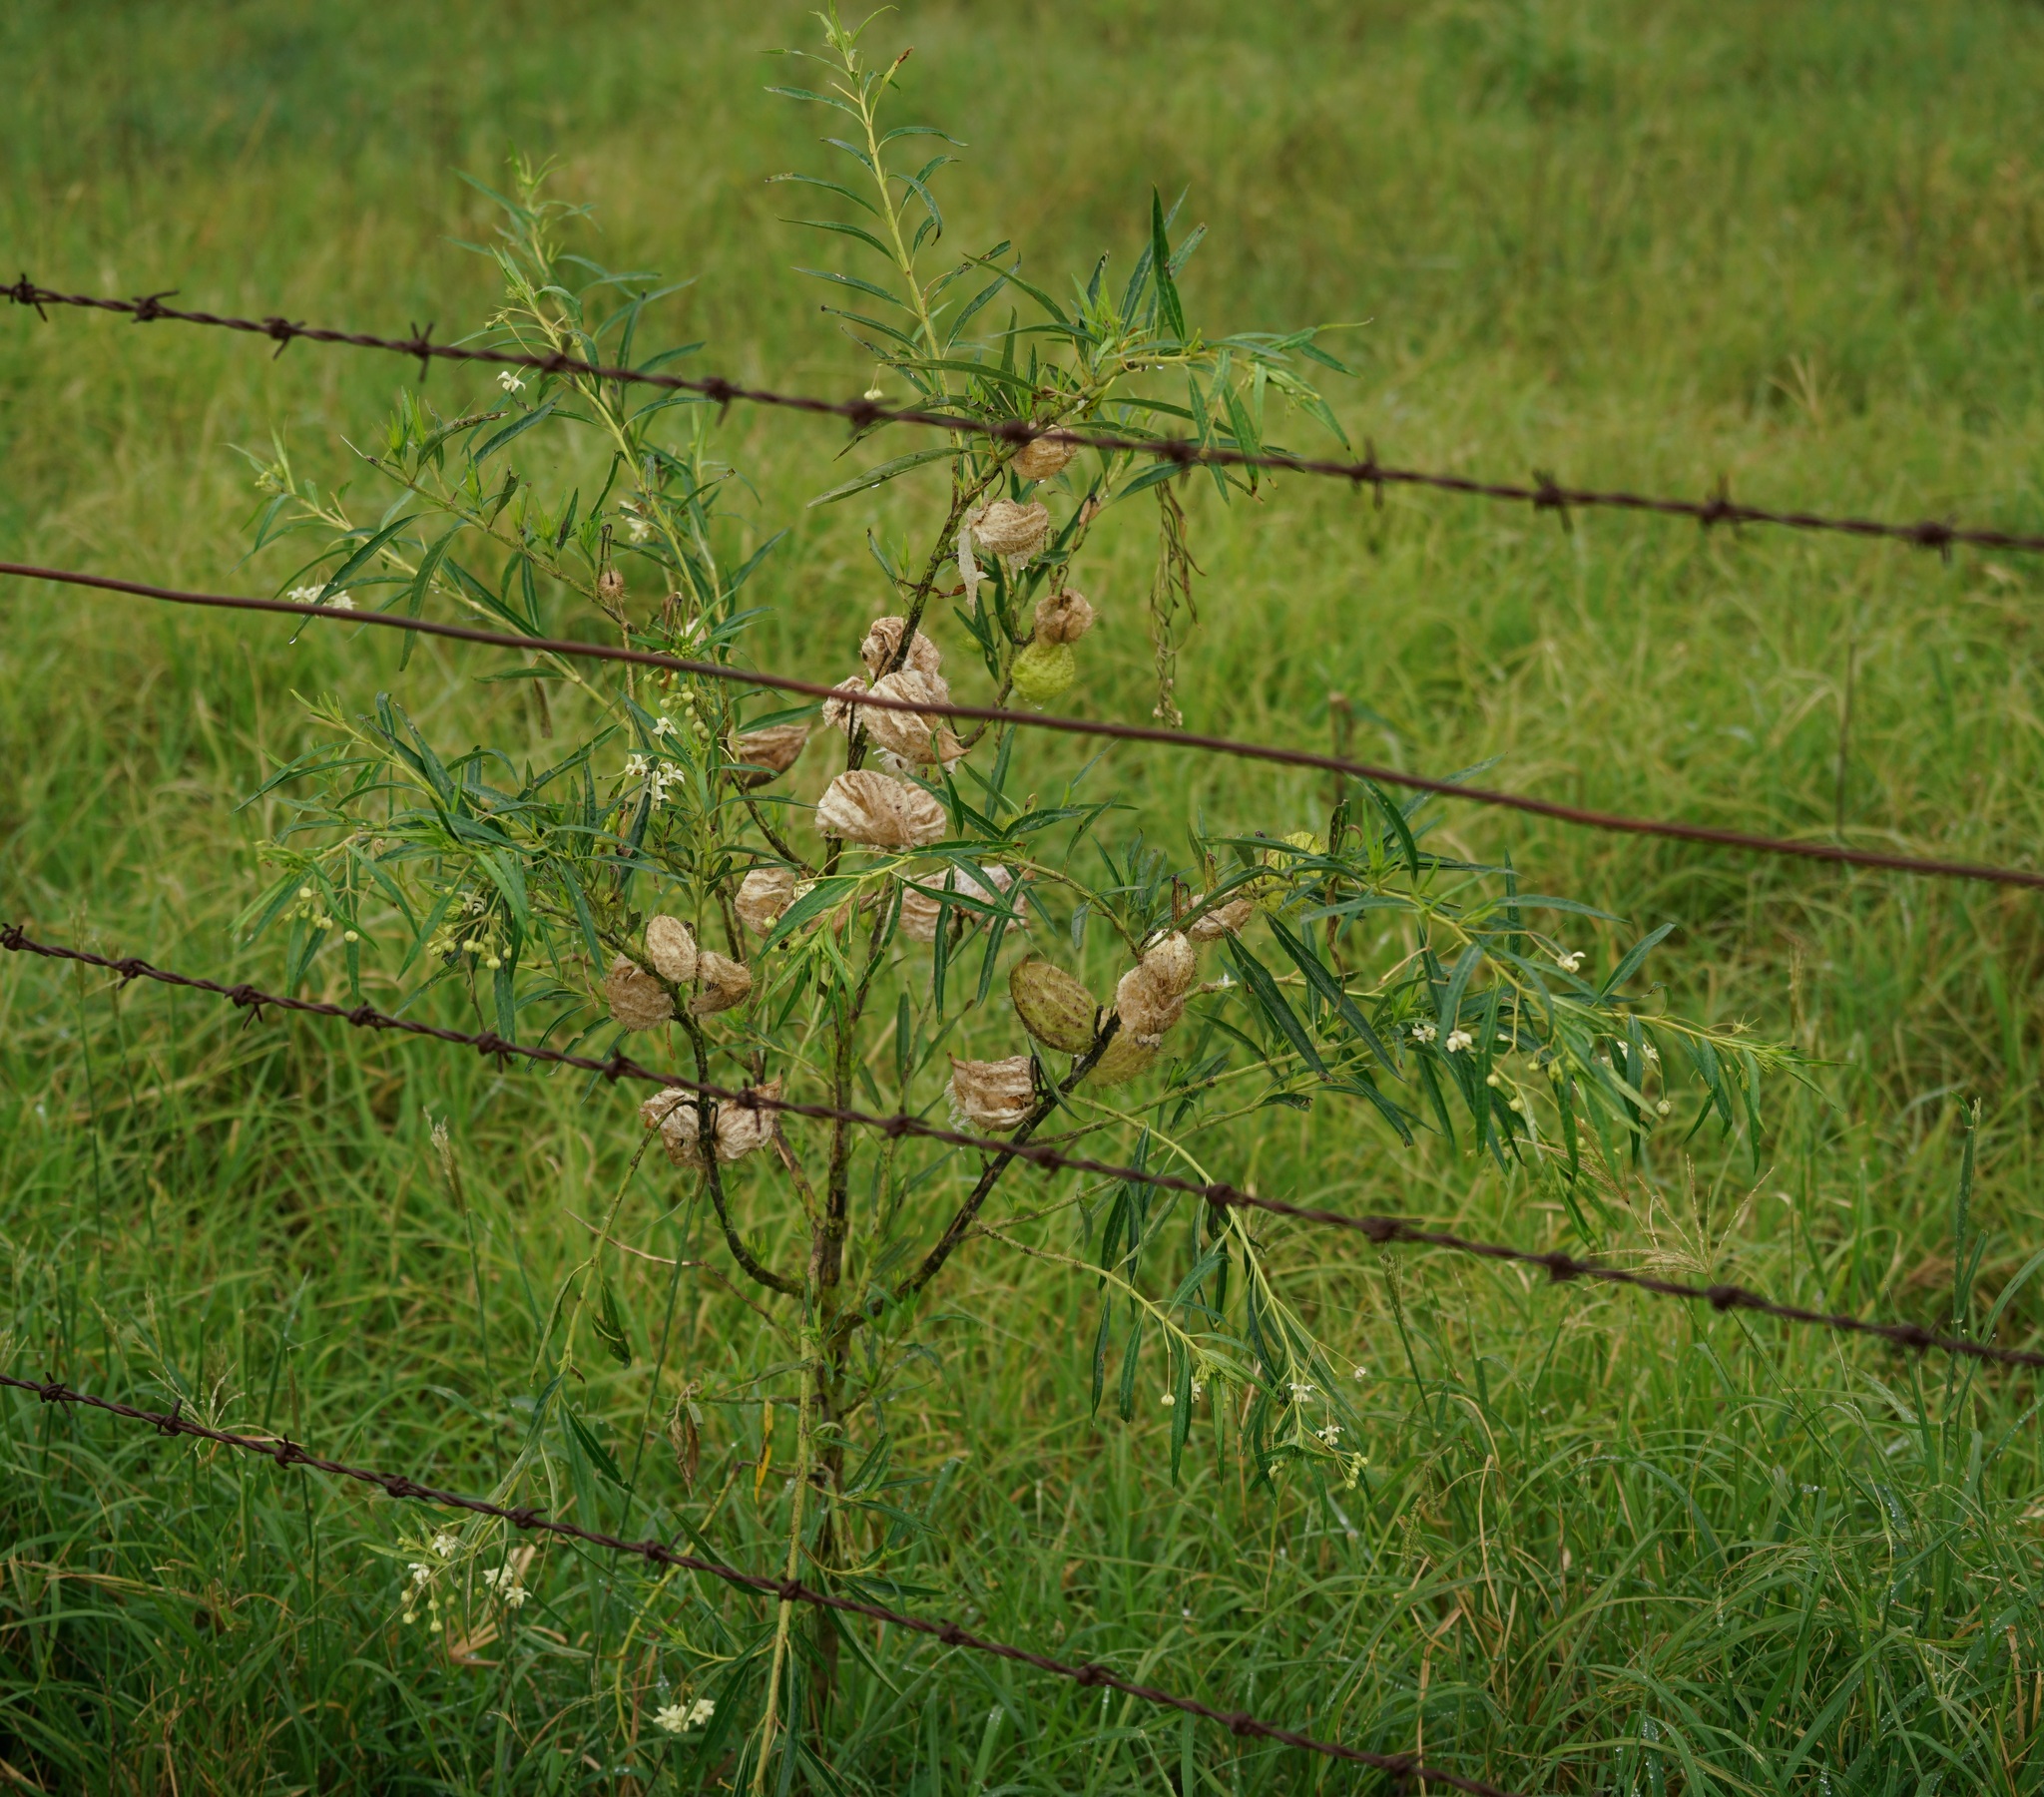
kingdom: Plantae
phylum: Tracheophyta
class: Magnoliopsida
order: Gentianales
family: Apocynaceae
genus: Gomphocarpus
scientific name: Gomphocarpus physocarpus
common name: Balloon cotton bush
